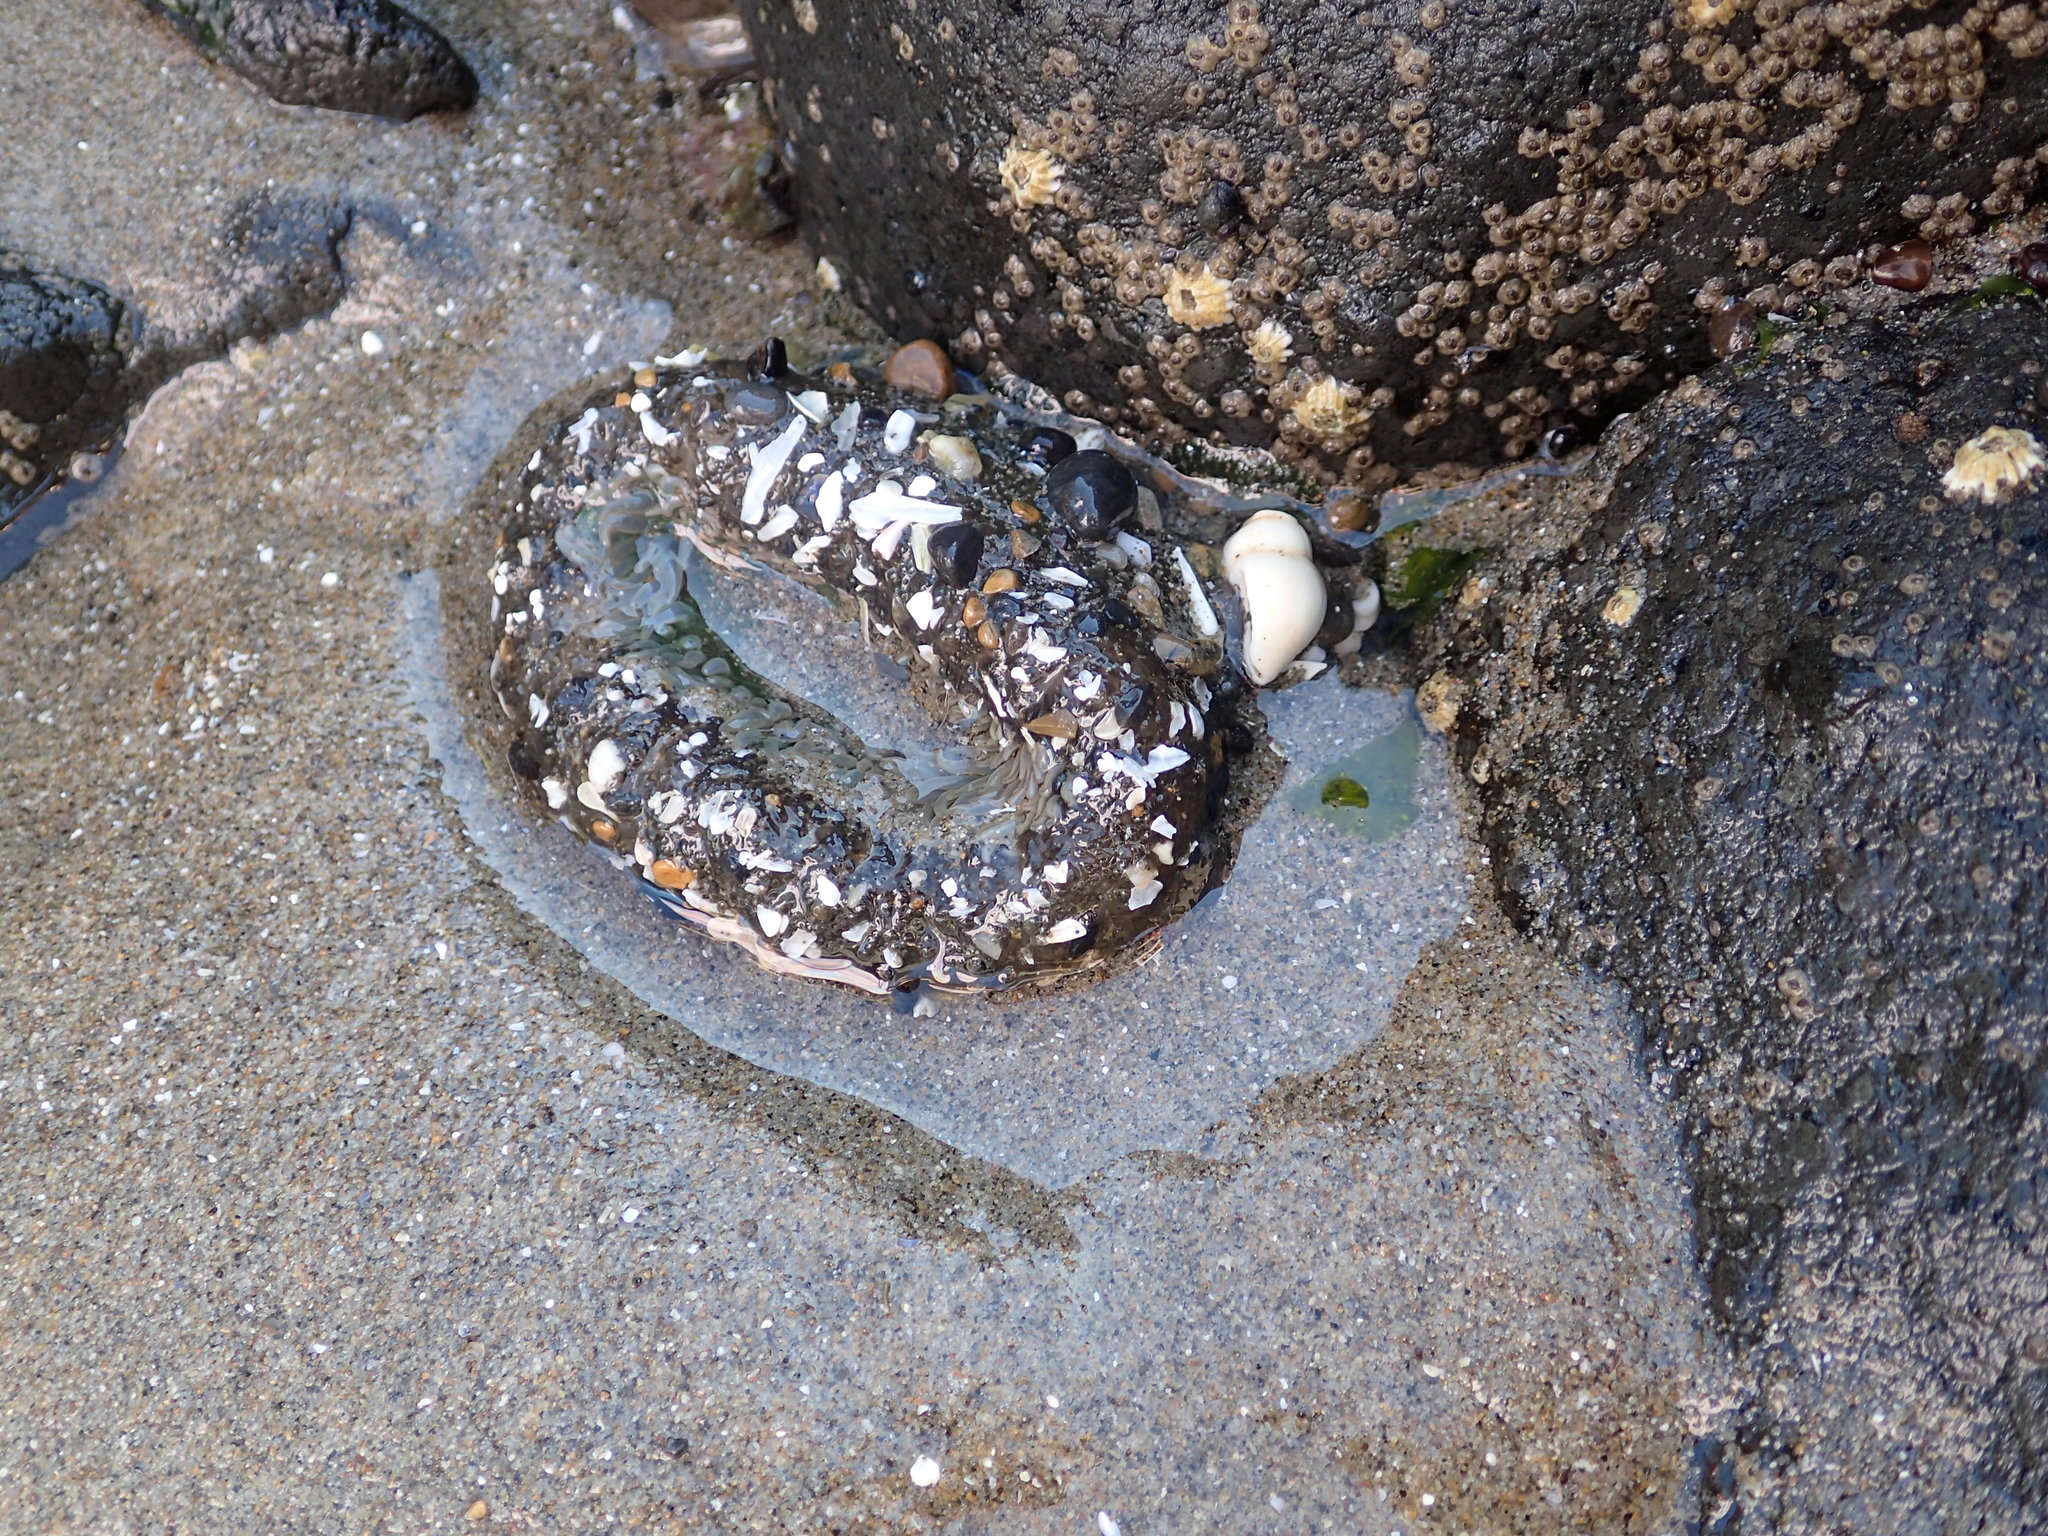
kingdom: Animalia
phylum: Cnidaria
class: Anthozoa
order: Actiniaria
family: Actiniidae
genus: Anthopleura
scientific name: Anthopleura xanthogrammica
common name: Giant green anemone
